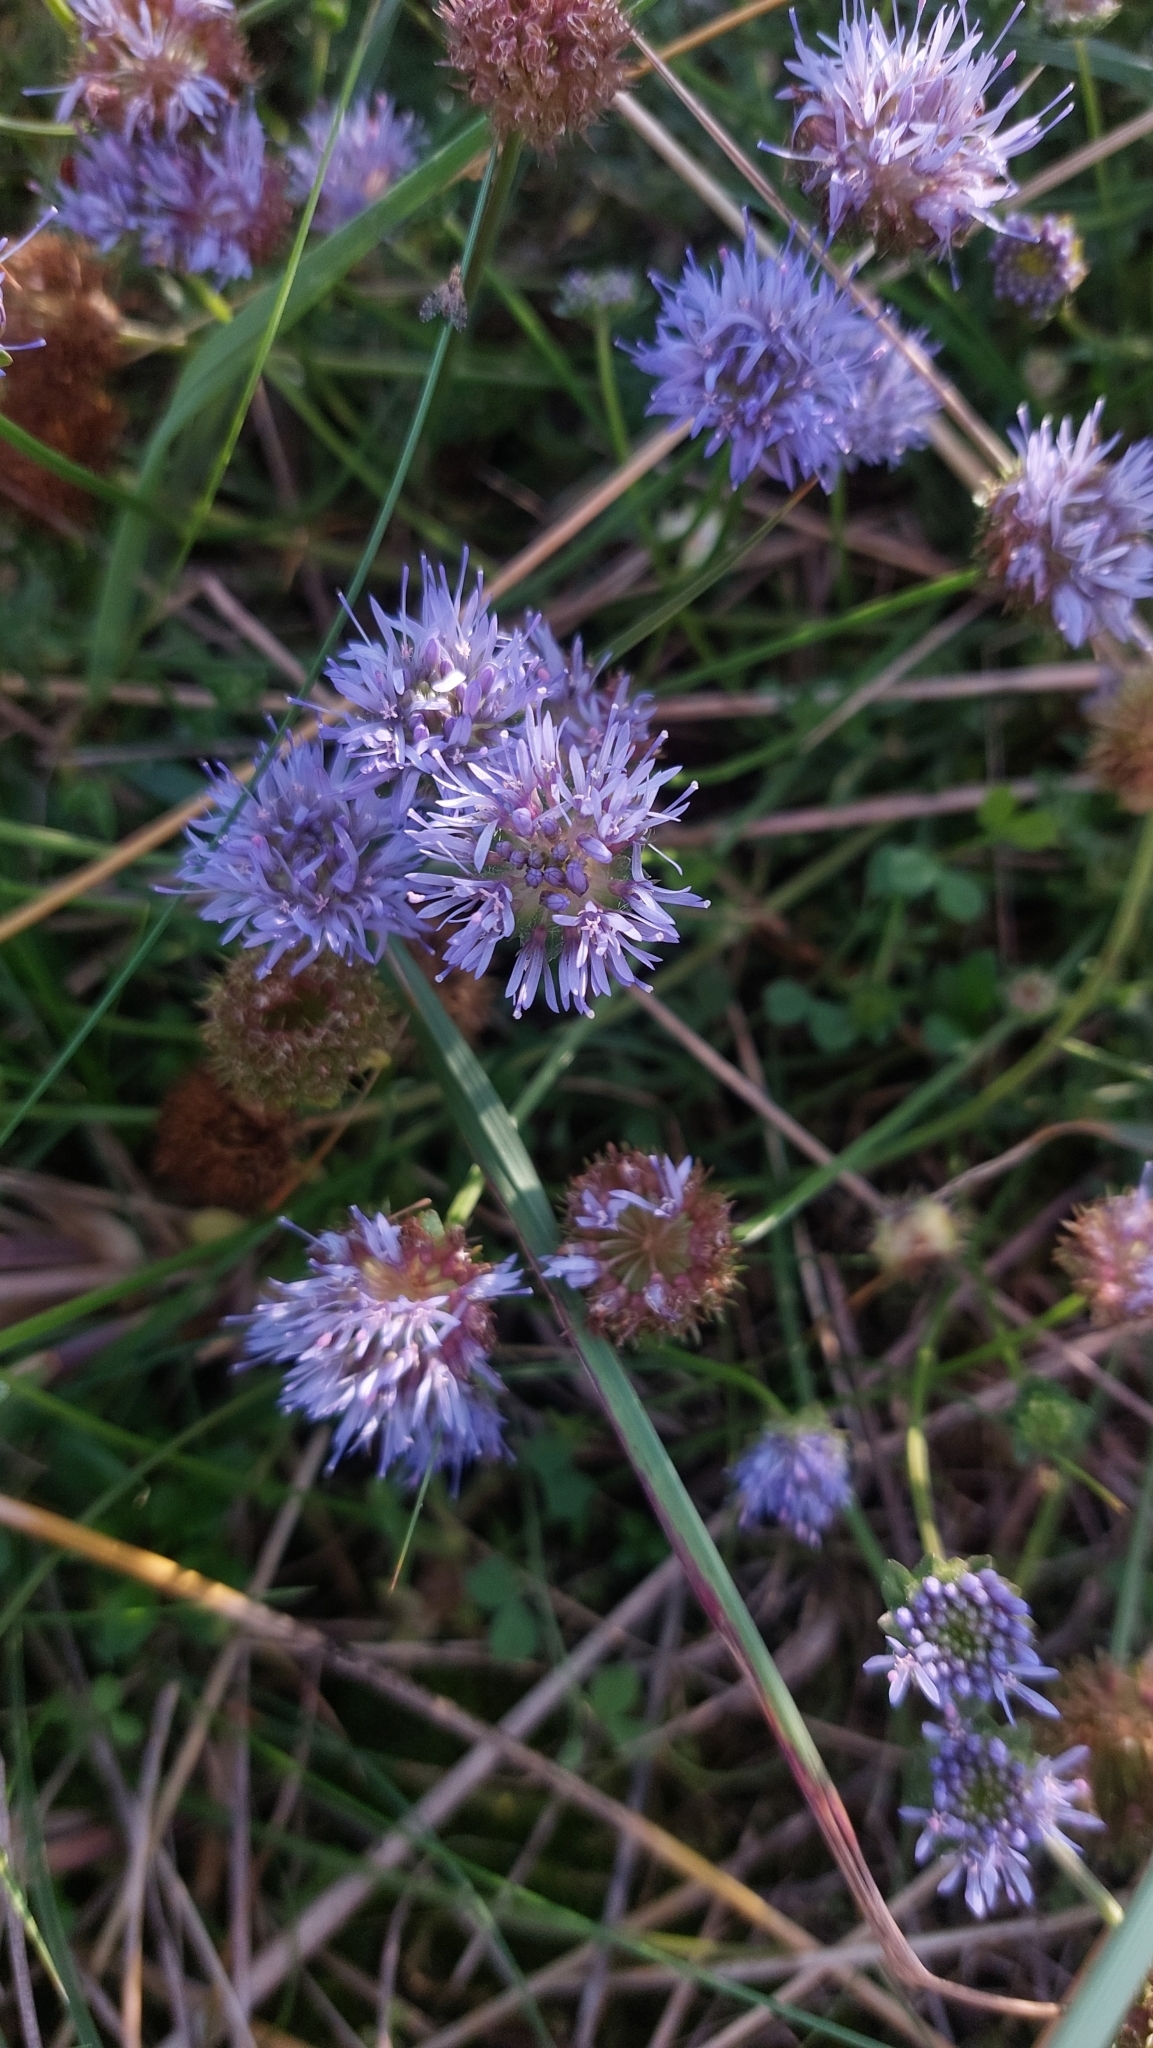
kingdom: Plantae
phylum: Tracheophyta
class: Magnoliopsida
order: Asterales
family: Campanulaceae
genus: Jasione
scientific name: Jasione montana
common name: Sheep's-bit
